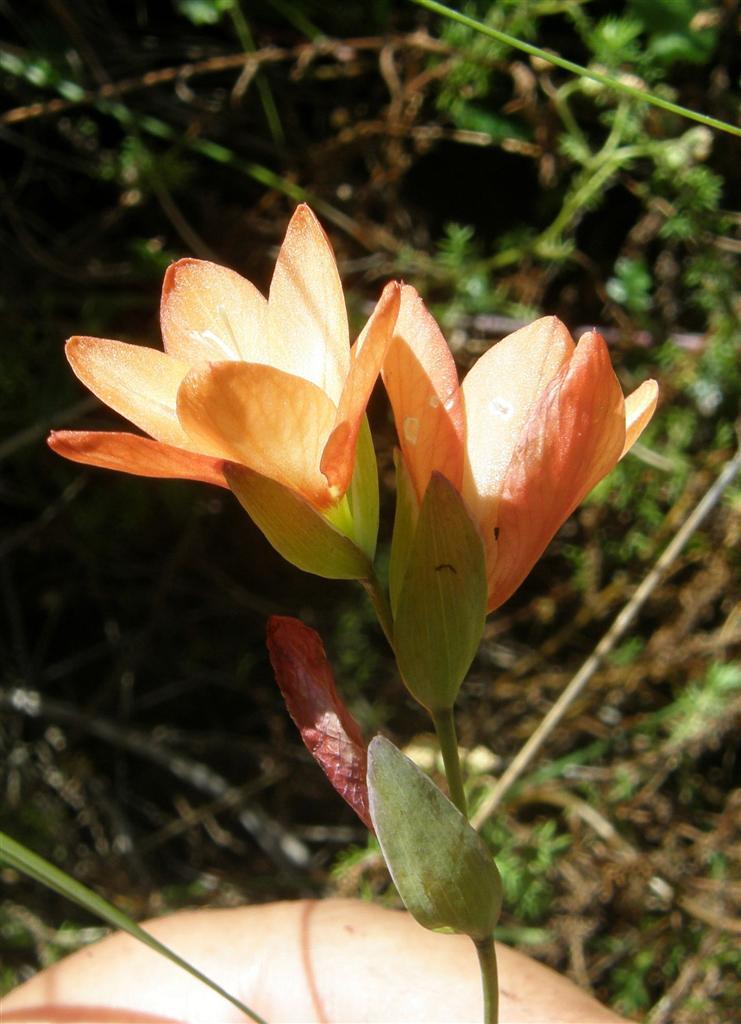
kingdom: Plantae
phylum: Tracheophyta
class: Liliopsida
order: Asparagales
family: Iridaceae
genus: Gladiolus
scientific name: Gladiolus brevitubus
